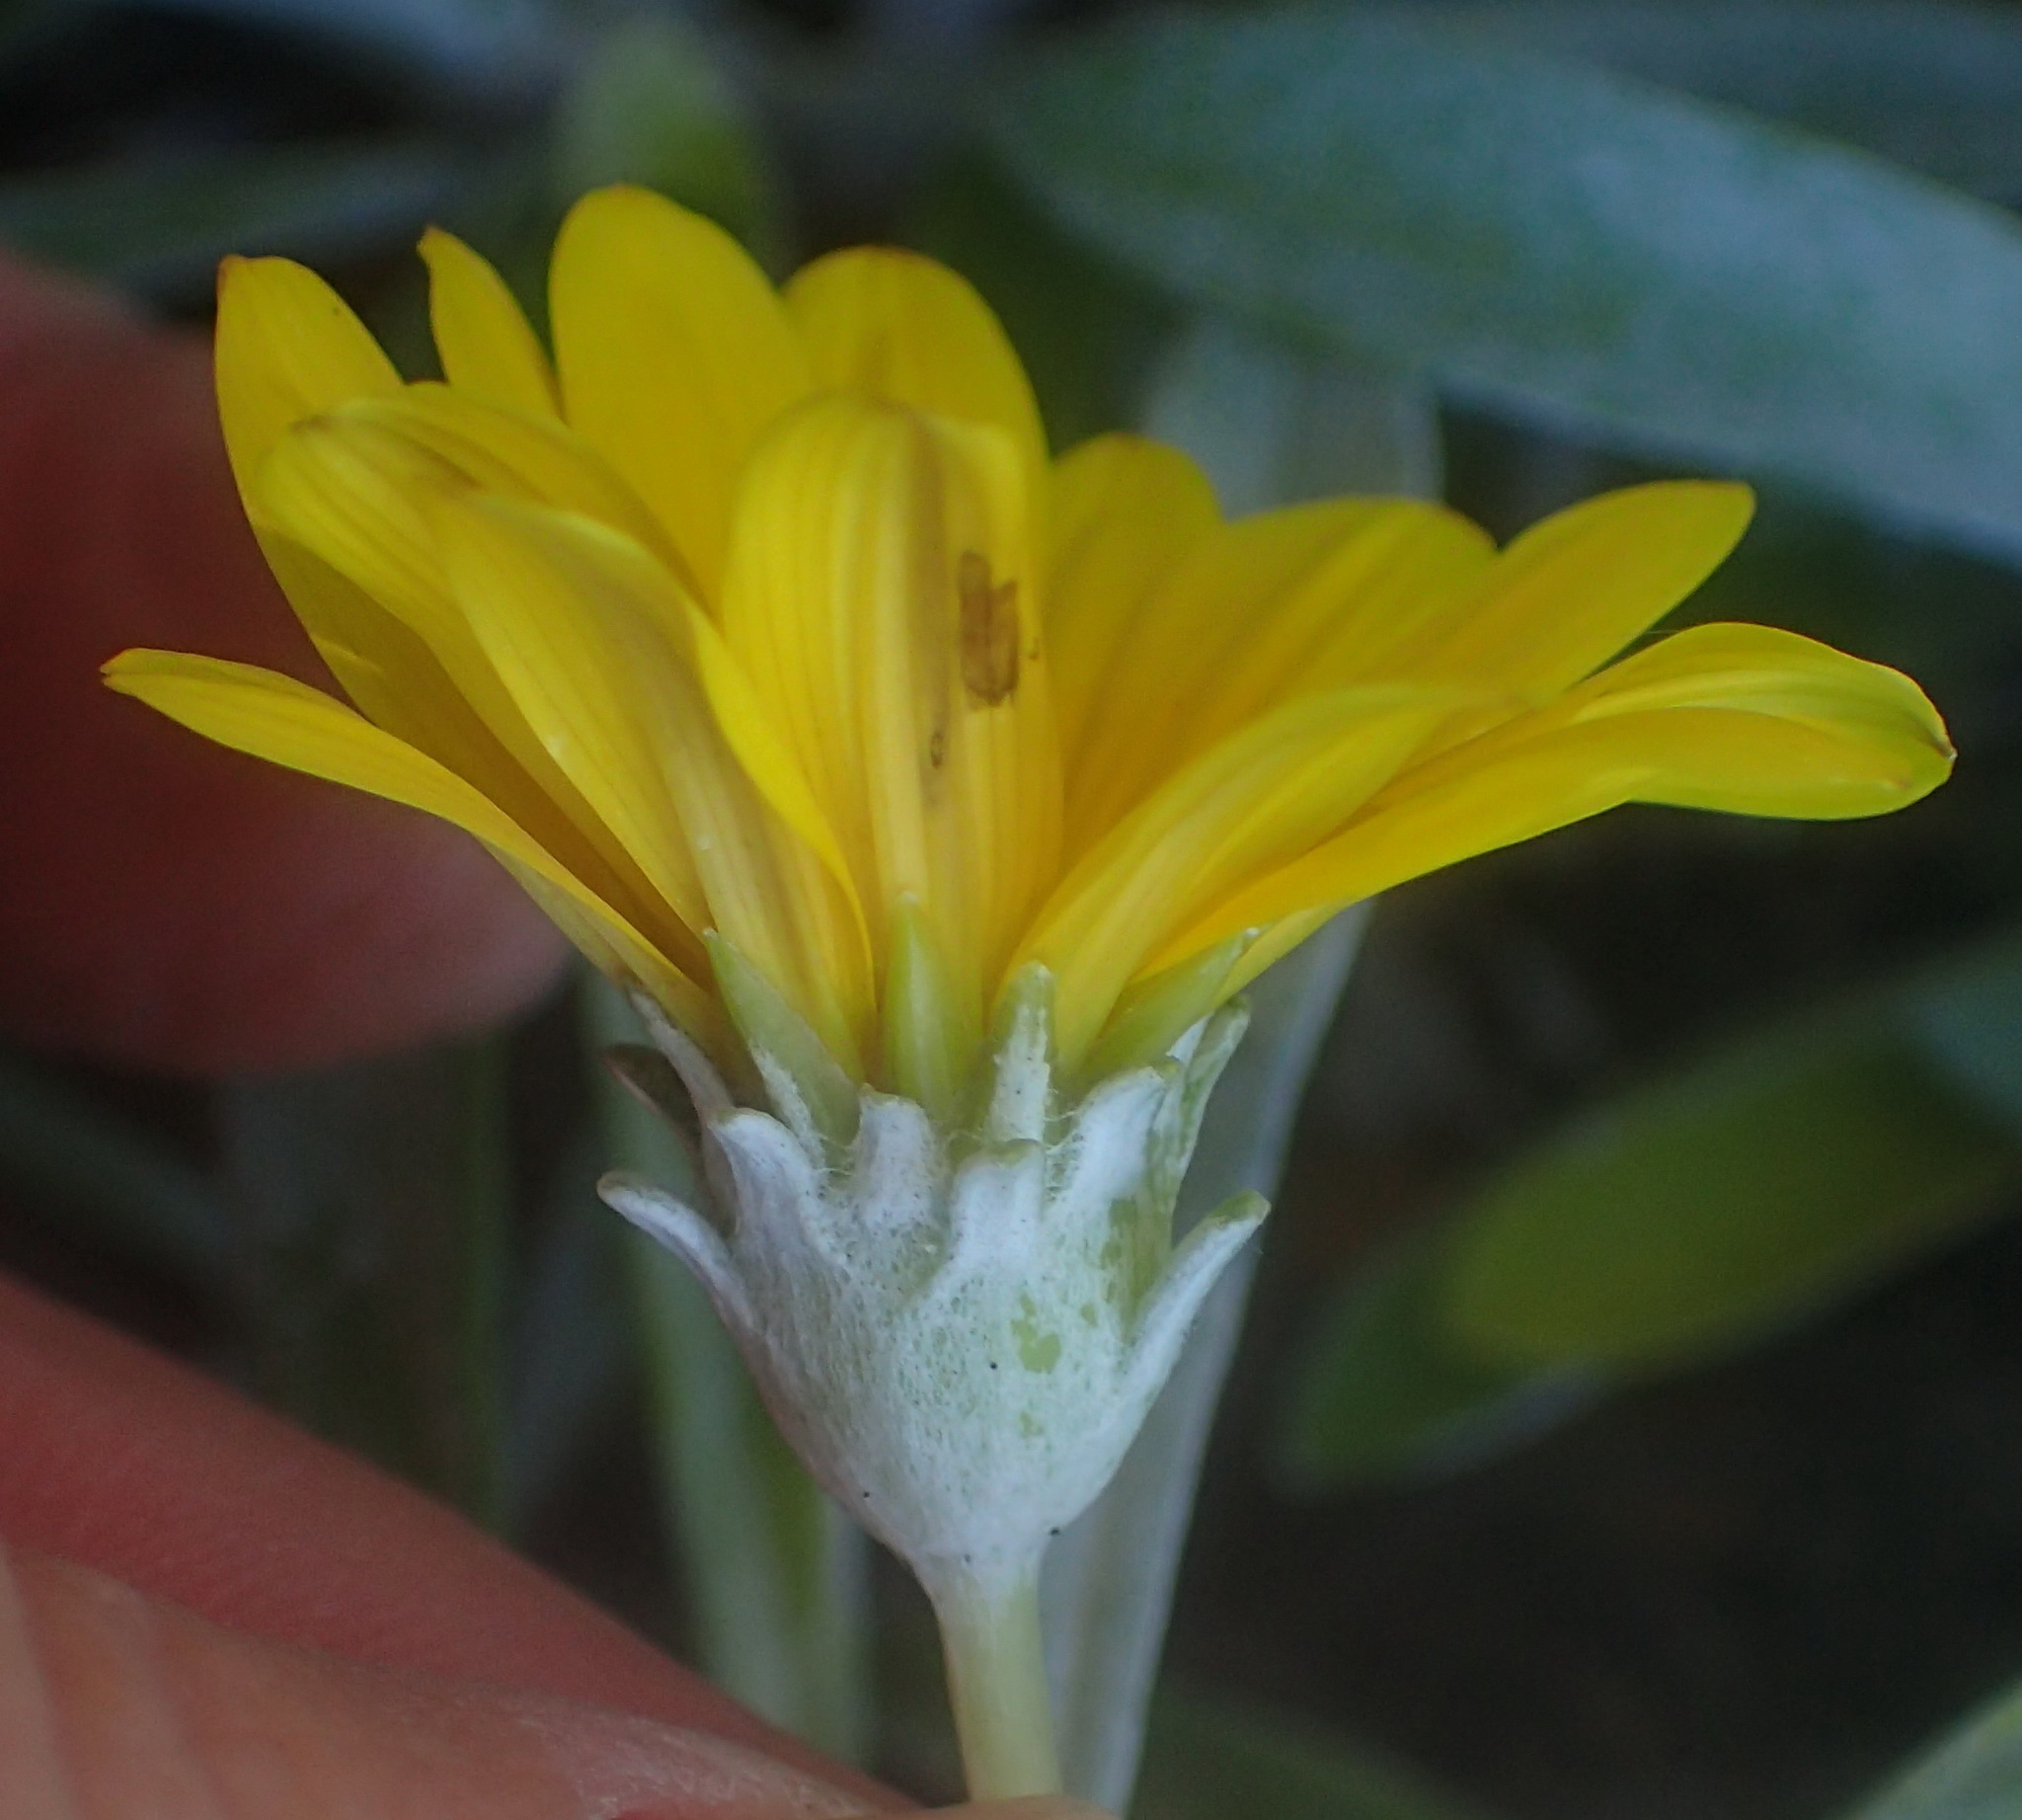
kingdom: Plantae
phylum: Tracheophyta
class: Magnoliopsida
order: Asterales
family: Asteraceae
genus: Gazania
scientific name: Gazania rigens
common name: Treasureflower
